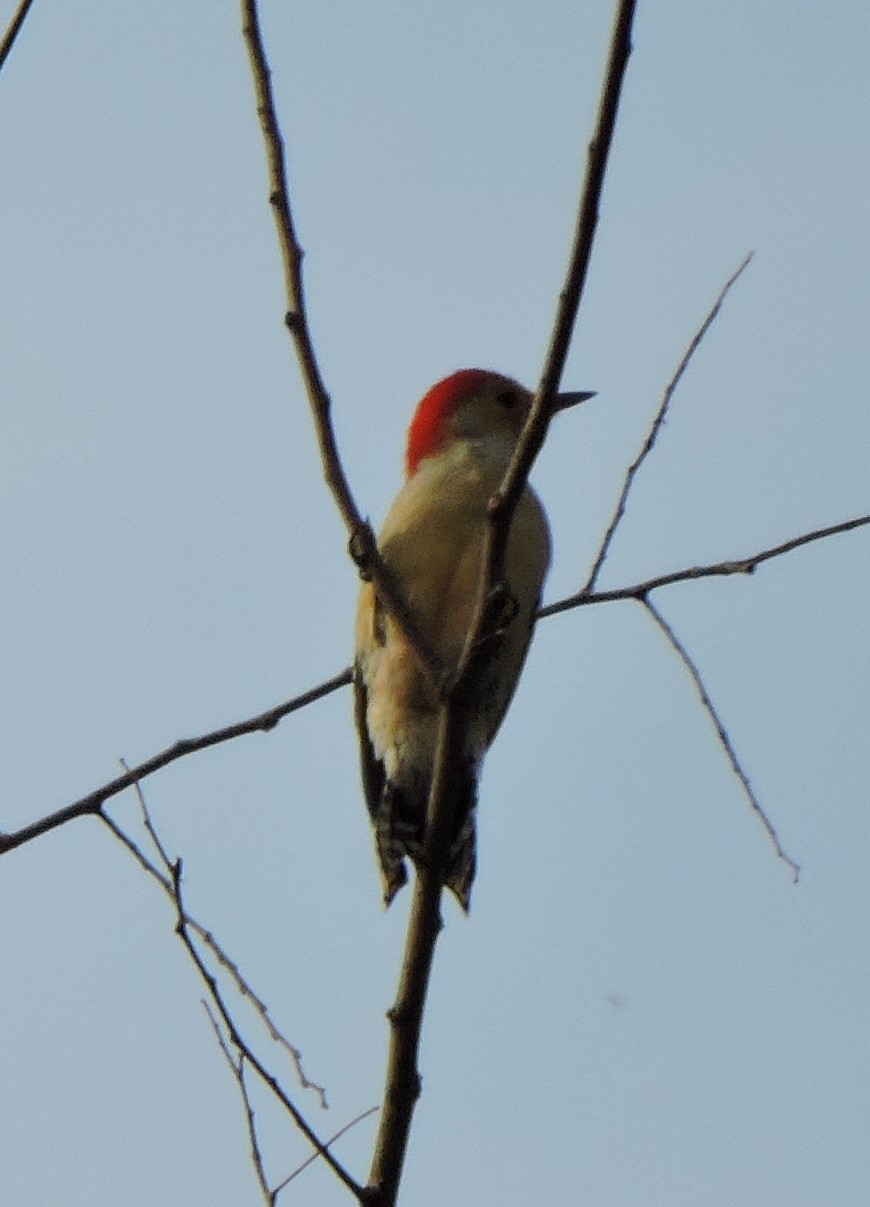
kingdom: Animalia
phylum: Chordata
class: Aves
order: Piciformes
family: Picidae
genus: Melanerpes
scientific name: Melanerpes carolinus
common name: Red-bellied woodpecker
